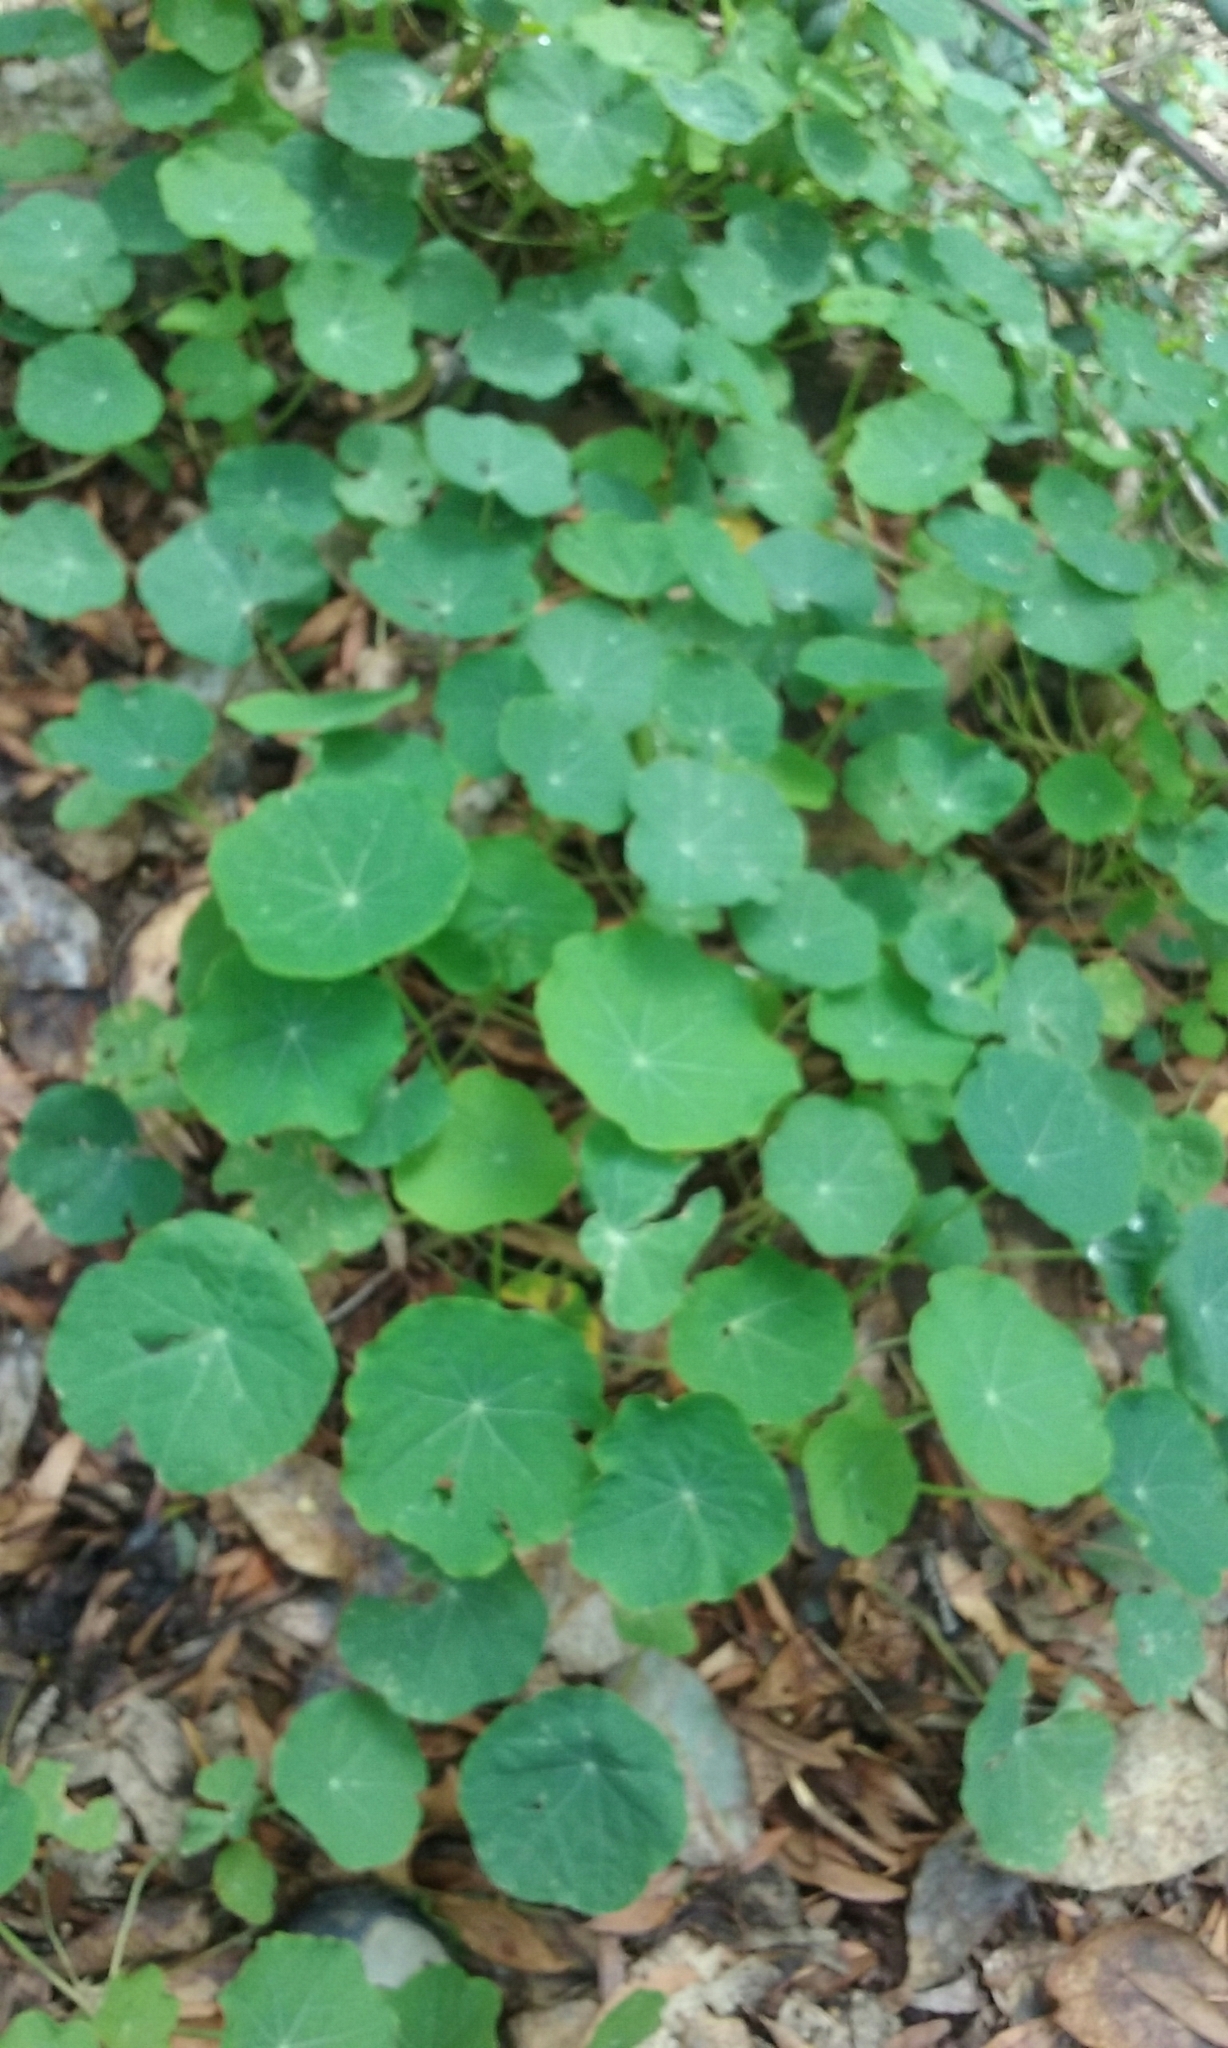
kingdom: Plantae
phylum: Tracheophyta
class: Magnoliopsida
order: Brassicales
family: Tropaeolaceae
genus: Tropaeolum
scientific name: Tropaeolum majus
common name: Nasturtium
